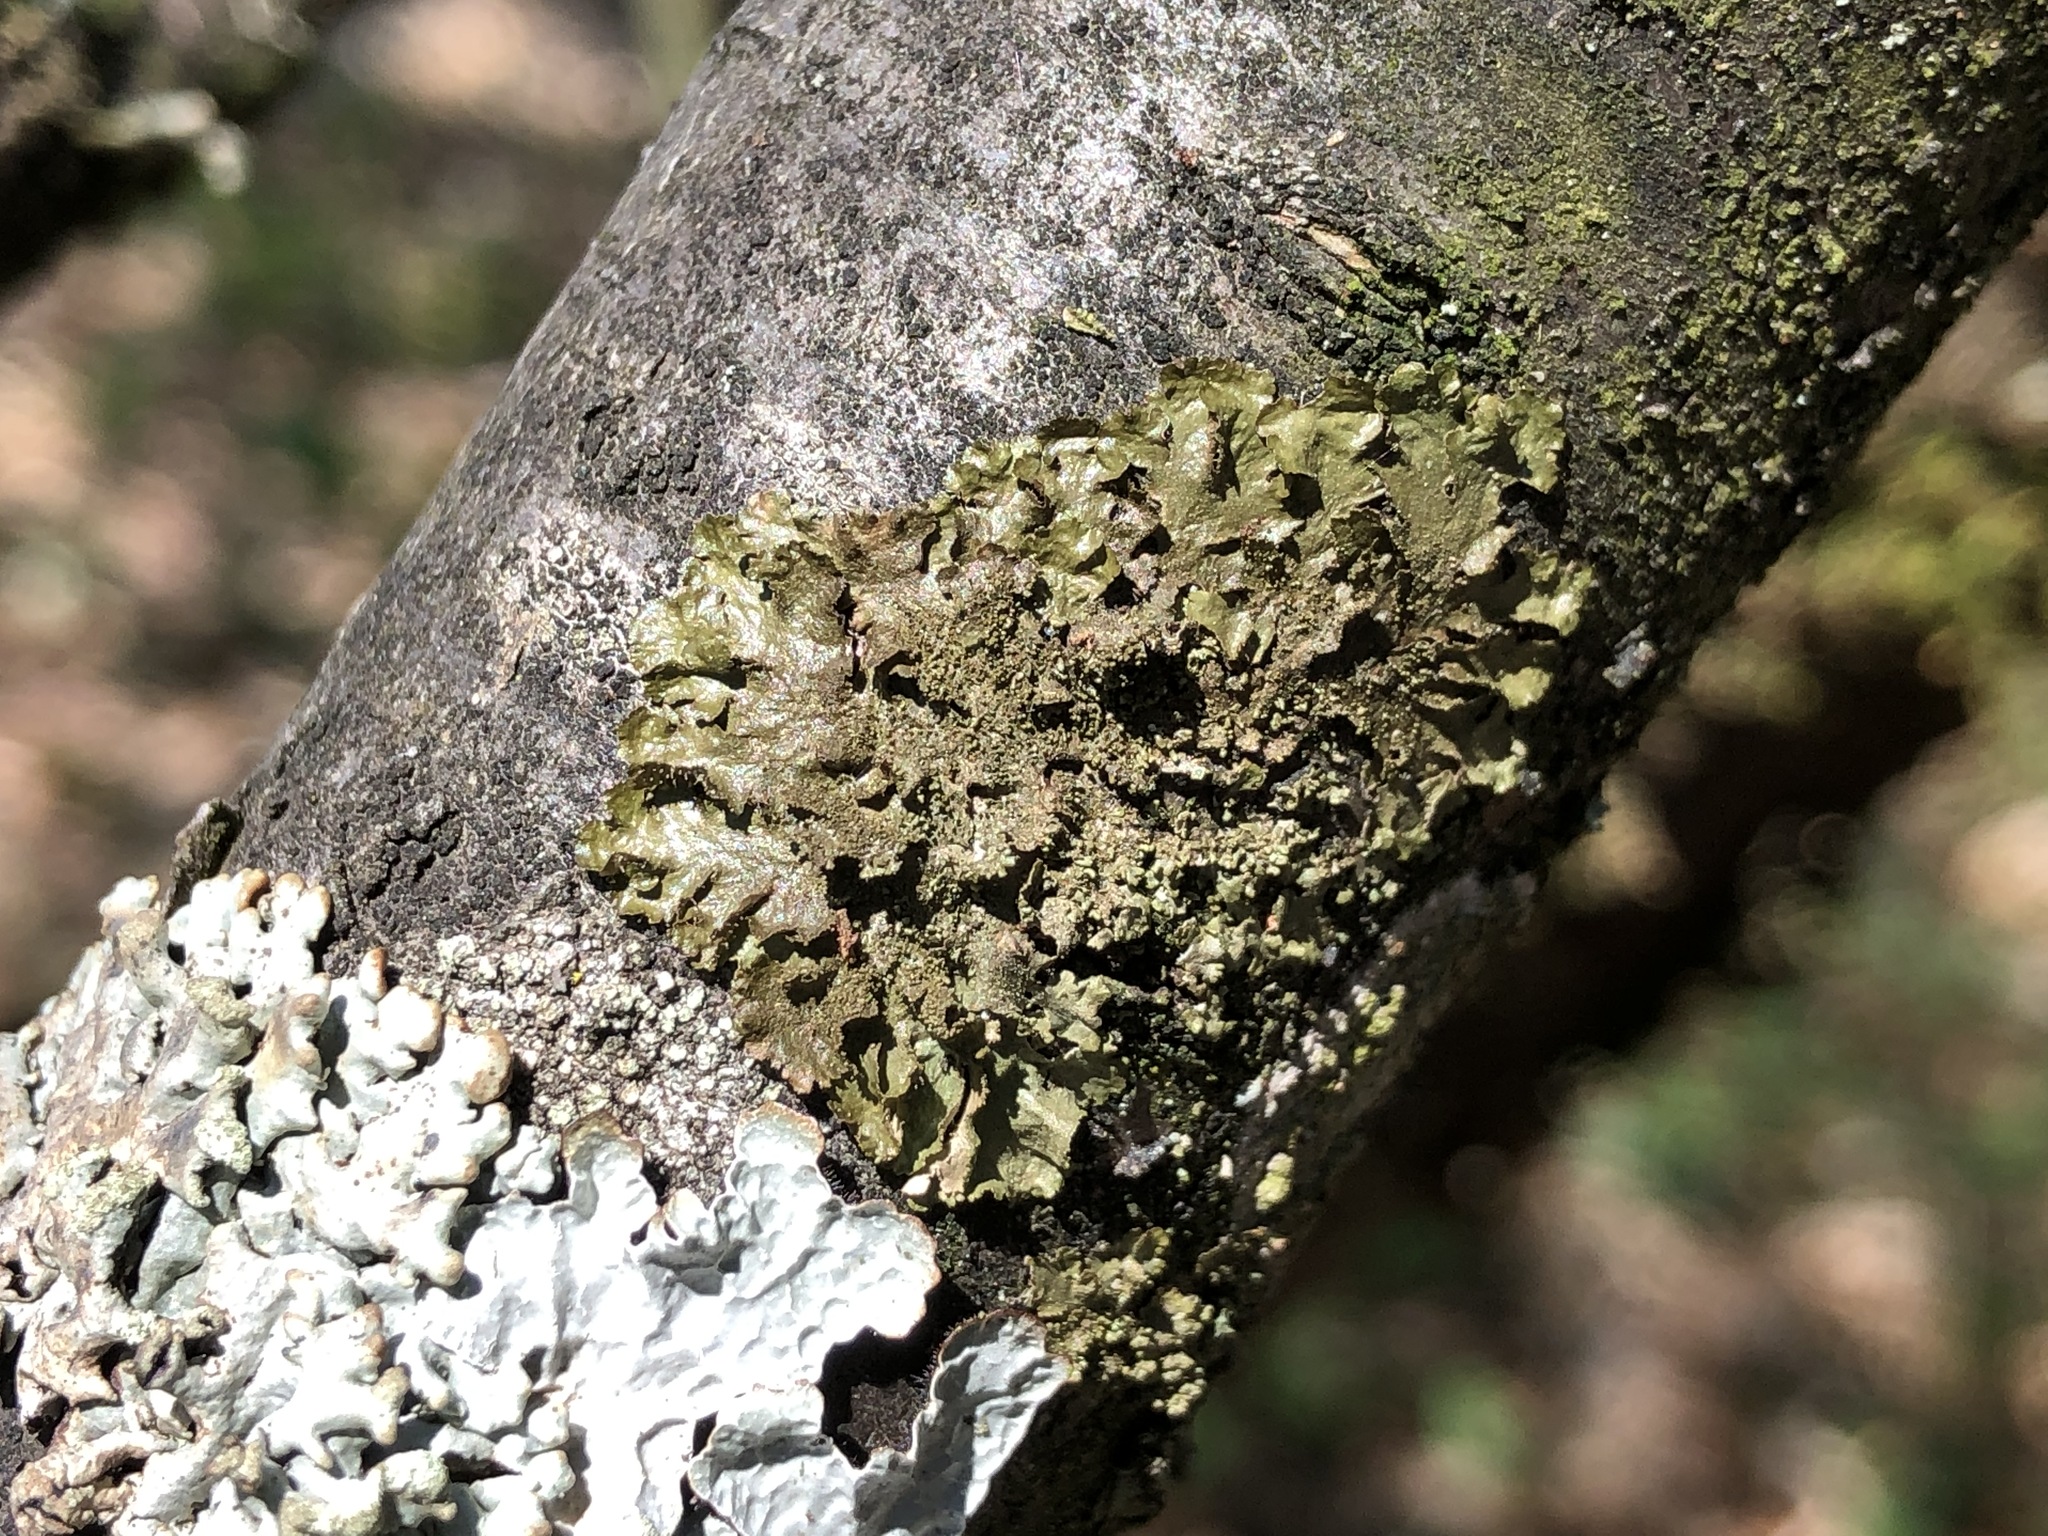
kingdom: Fungi
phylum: Ascomycota
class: Lecanoromycetes
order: Lecanorales
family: Parmeliaceae
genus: Melanohalea
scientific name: Melanohalea exasperatula
